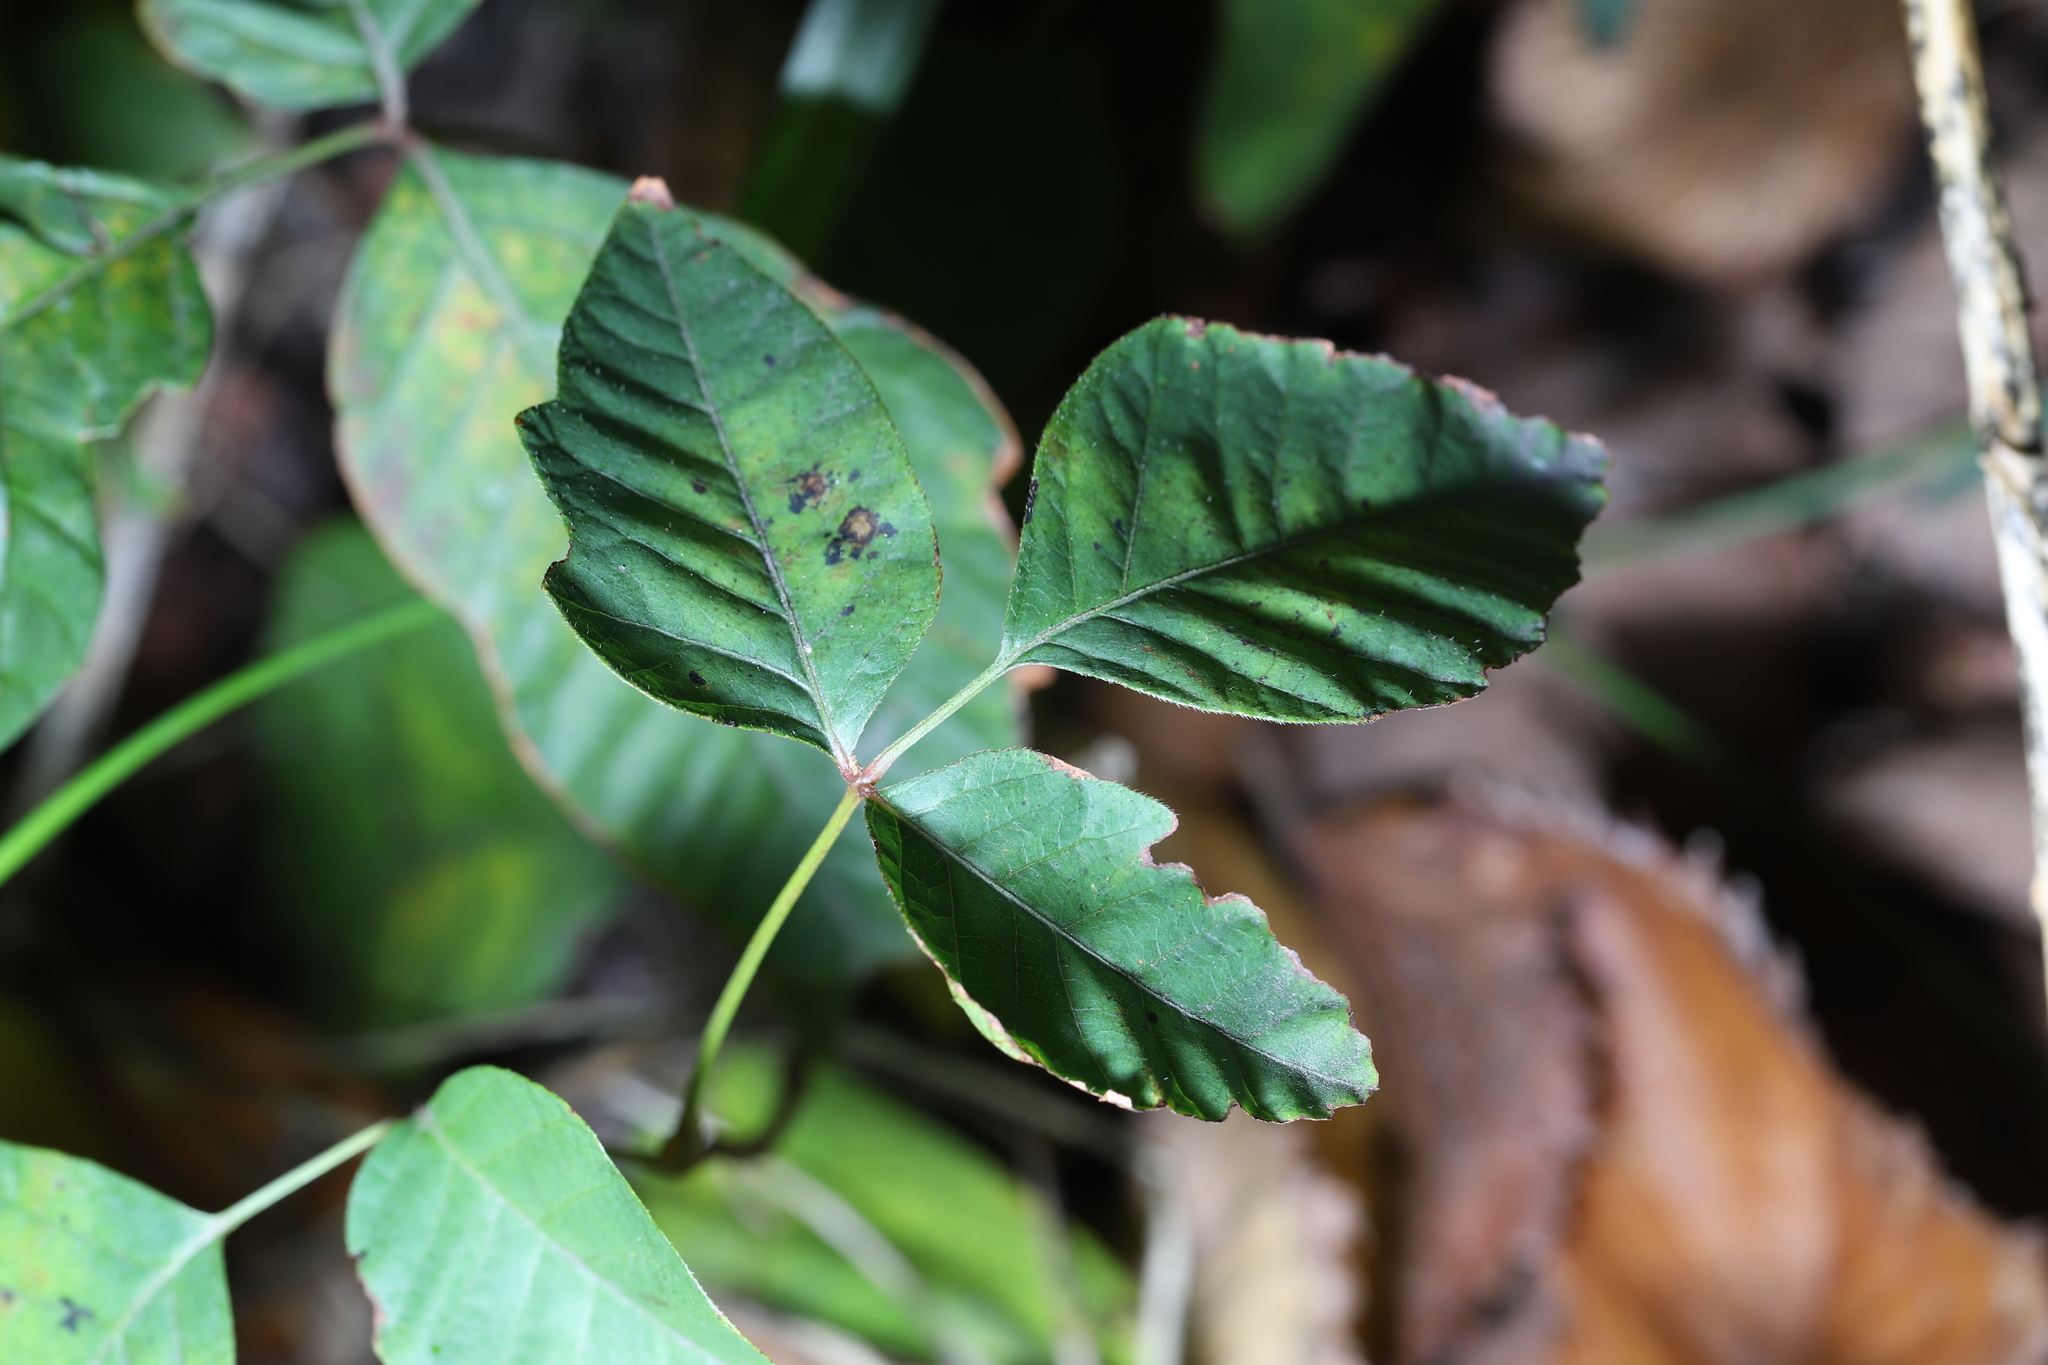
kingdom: Plantae
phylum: Tracheophyta
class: Magnoliopsida
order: Sapindales
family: Anacardiaceae
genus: Toxicodendron
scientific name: Toxicodendron radicans
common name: Poison ivy
